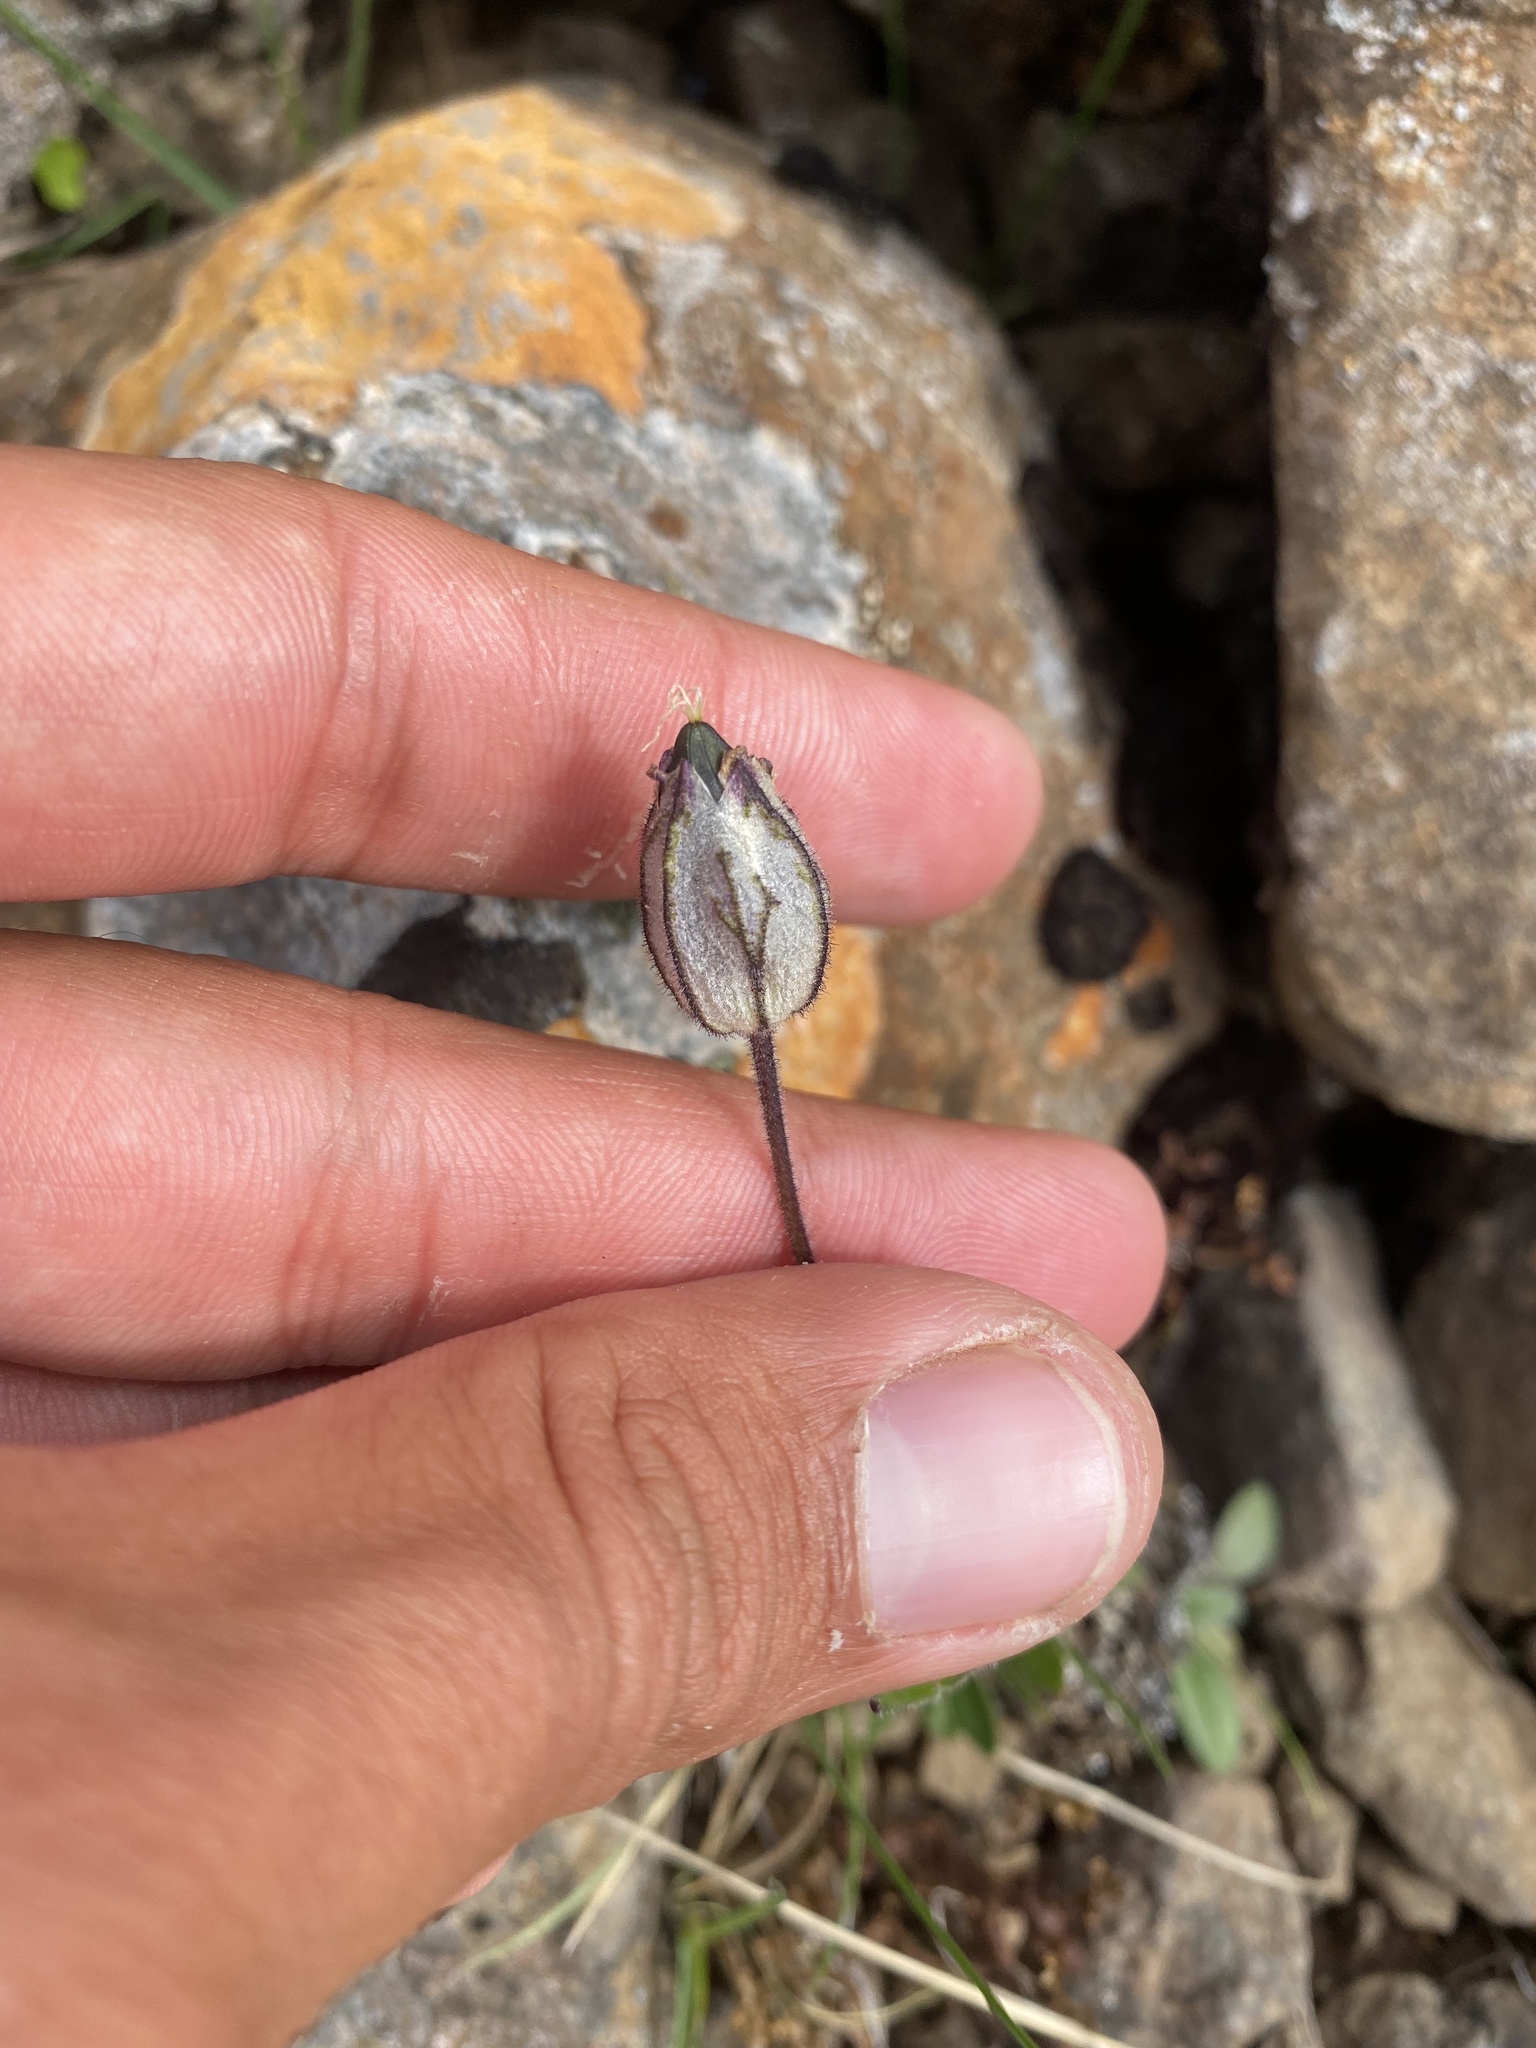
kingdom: Plantae
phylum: Tracheophyta
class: Magnoliopsida
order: Caryophyllales
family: Caryophyllaceae
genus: Silene
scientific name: Silene wahlbergella
